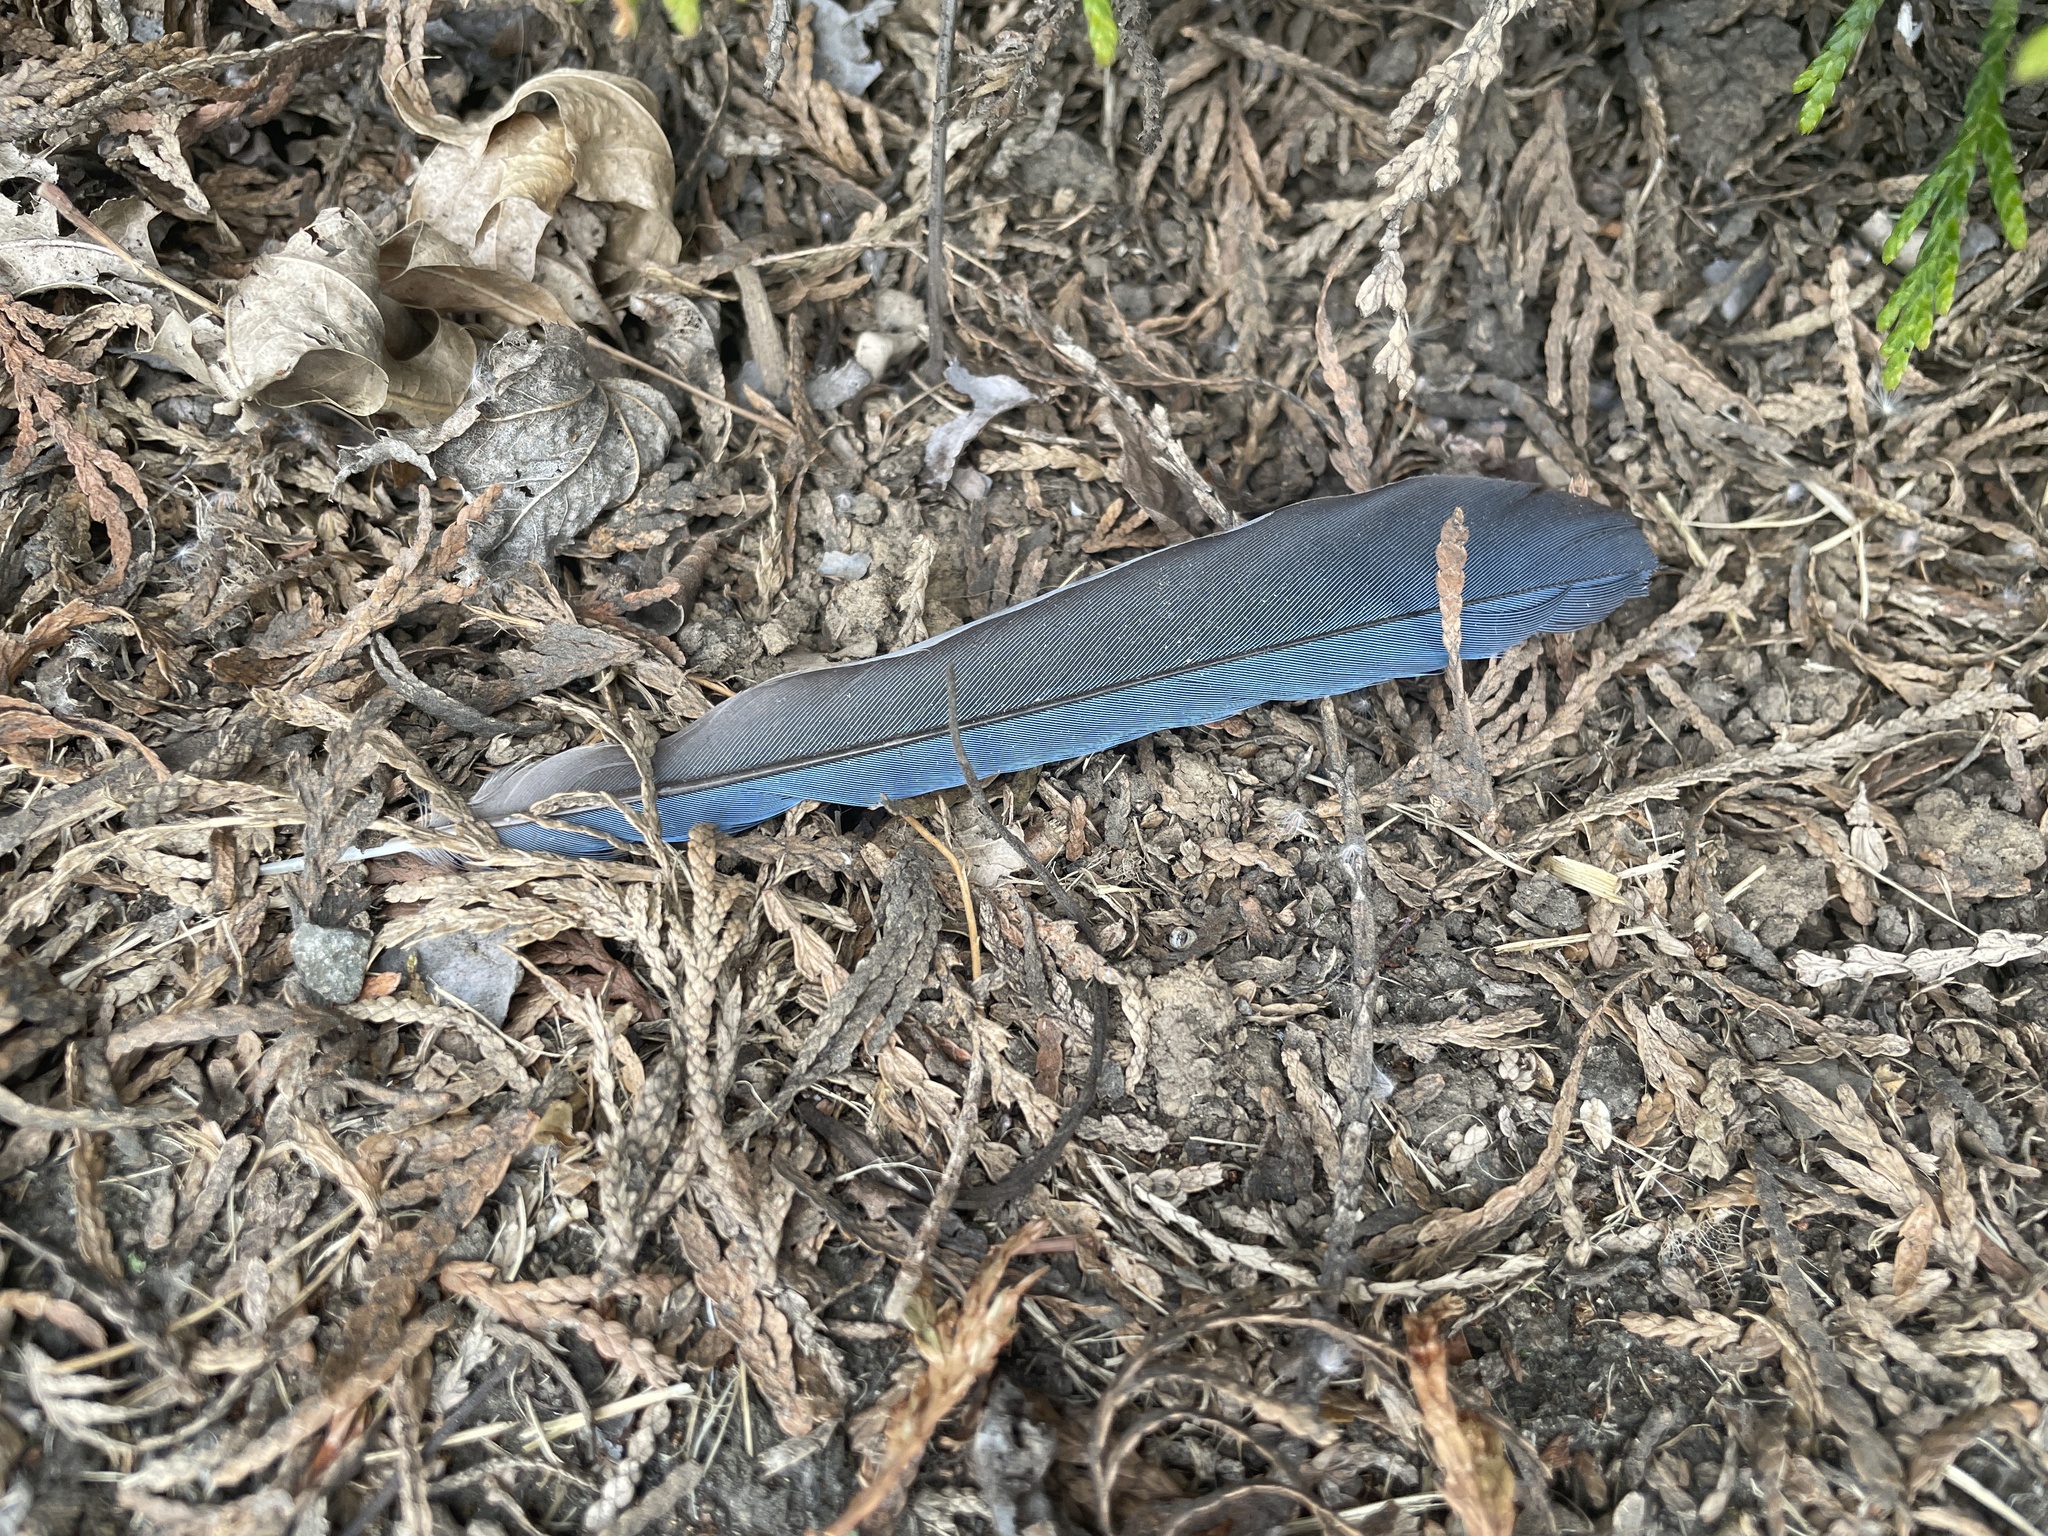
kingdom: Animalia
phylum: Chordata
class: Aves
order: Passeriformes
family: Corvidae
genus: Cyanocitta
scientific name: Cyanocitta stelleri
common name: Steller's jay
